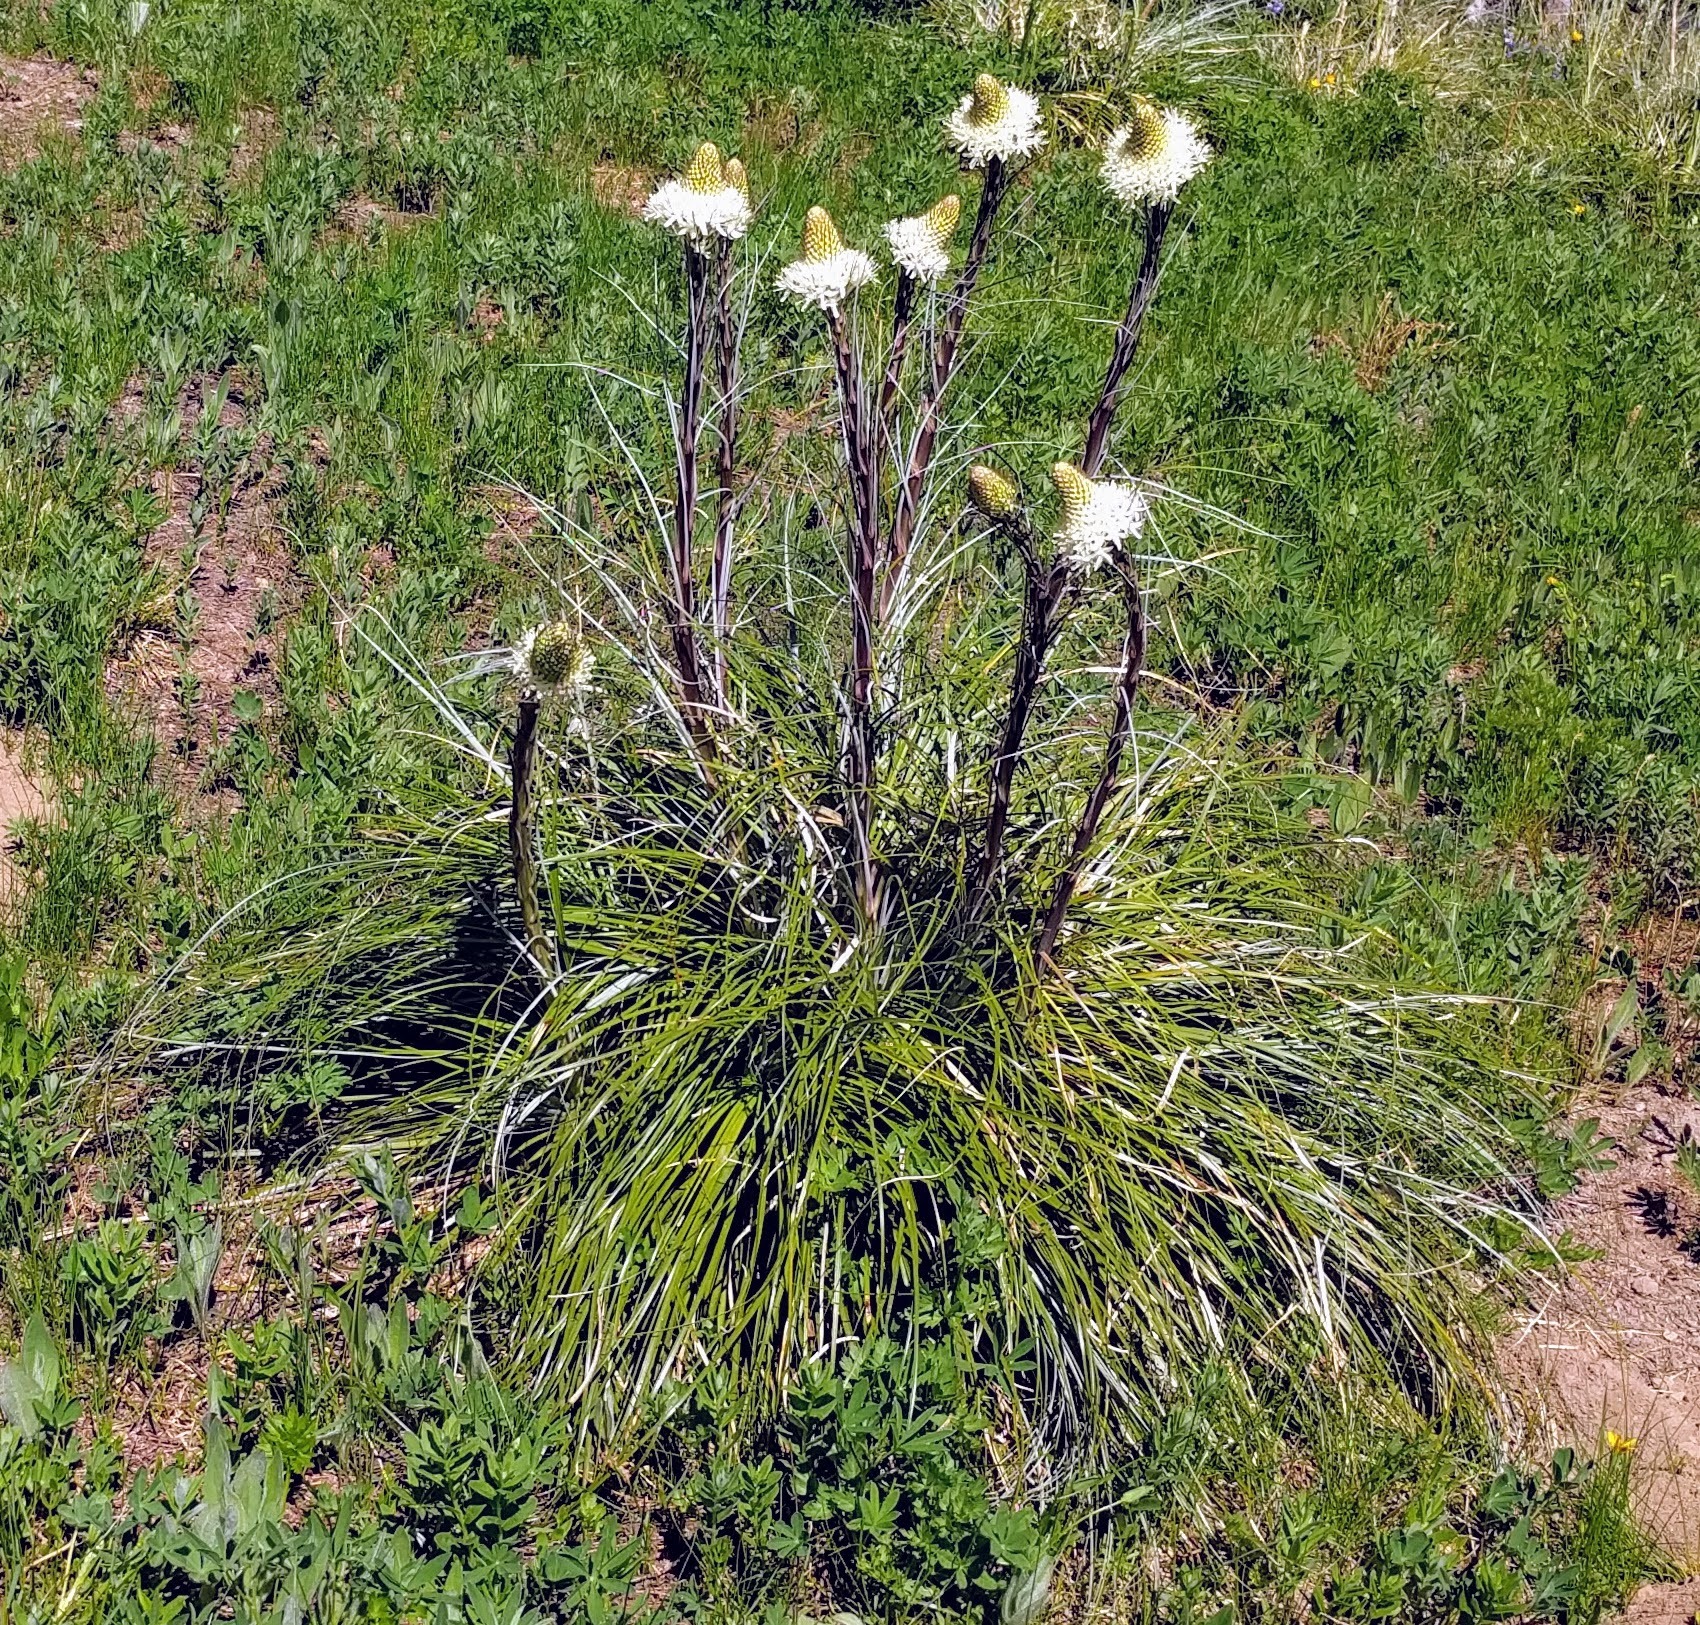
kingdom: Plantae
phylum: Tracheophyta
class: Liliopsida
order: Liliales
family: Melanthiaceae
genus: Xerophyllum
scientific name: Xerophyllum tenax
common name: Bear-grass
